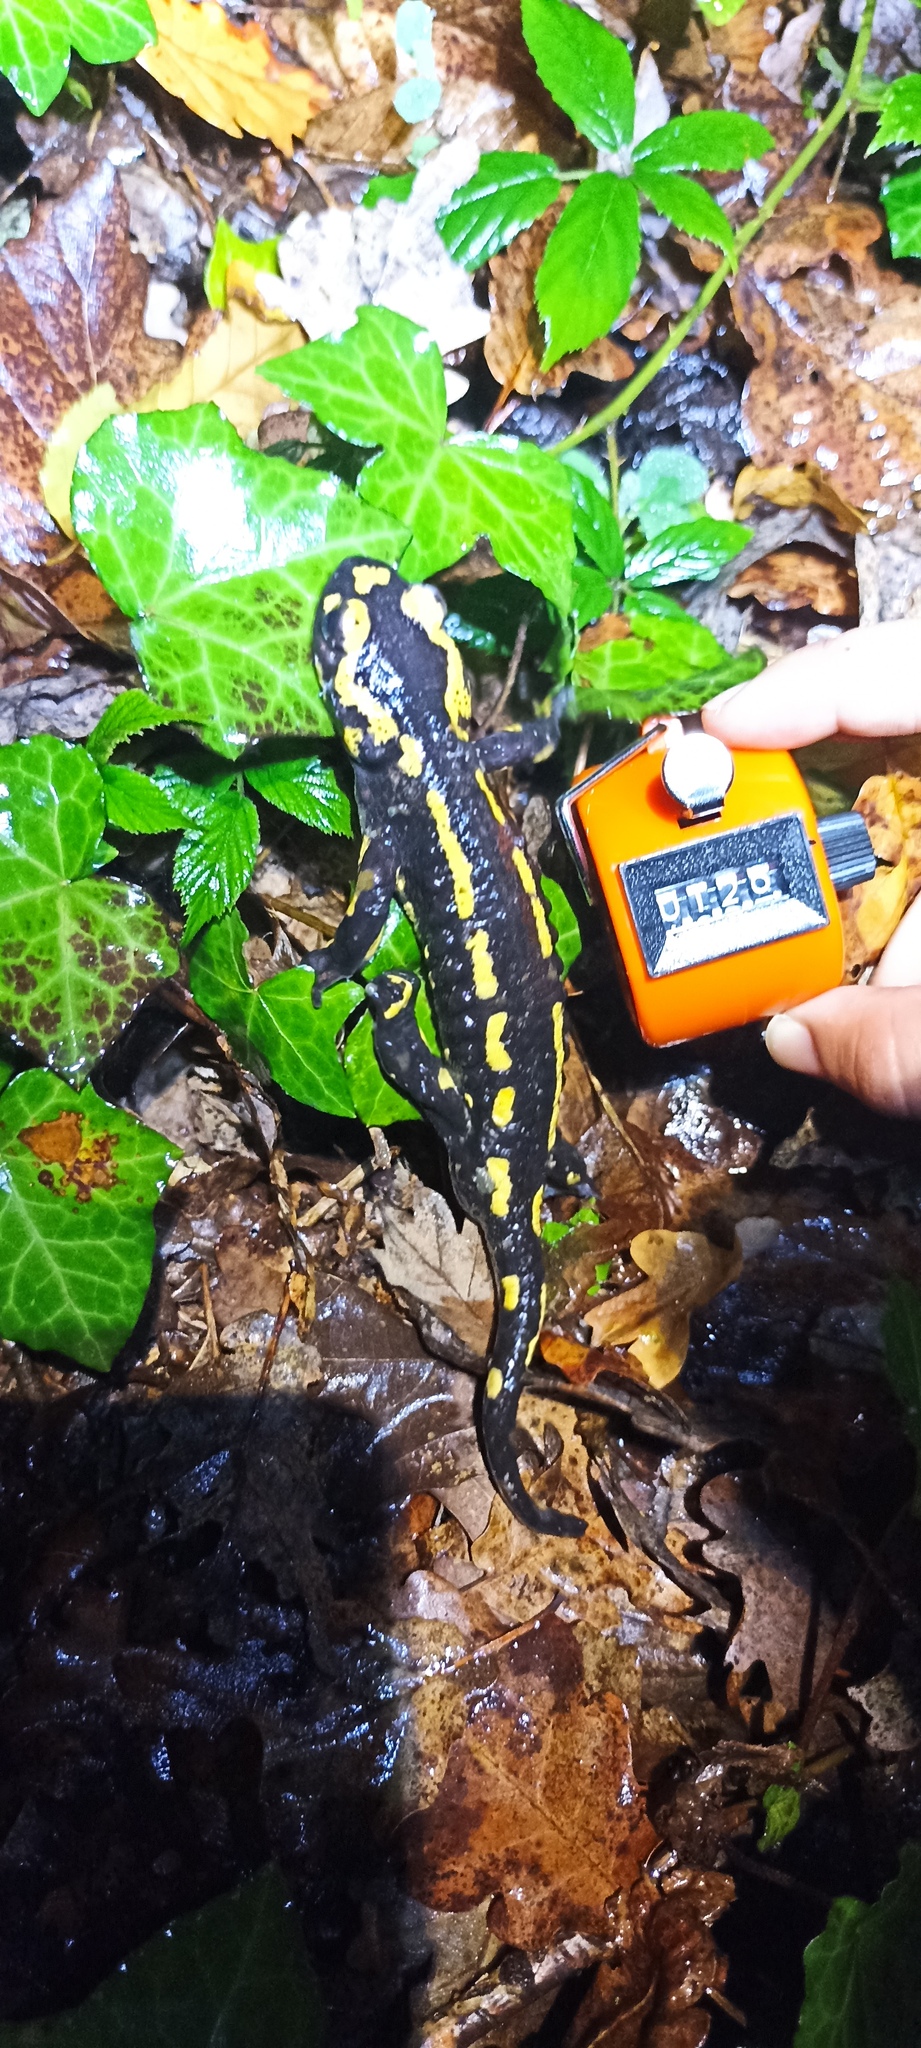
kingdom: Animalia
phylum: Chordata
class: Amphibia
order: Caudata
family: Salamandridae
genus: Salamandra
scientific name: Salamandra salamandra
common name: Fire salamander
